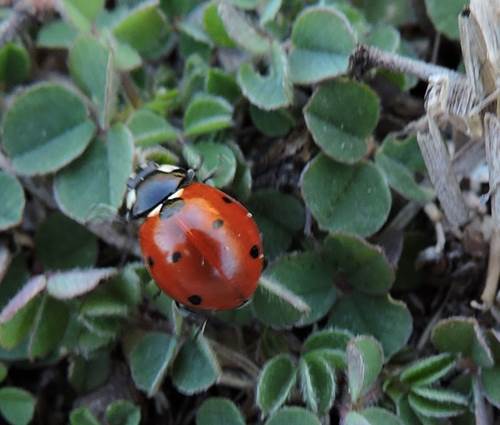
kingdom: Animalia
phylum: Arthropoda
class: Insecta
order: Coleoptera
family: Coccinellidae
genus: Coccinella
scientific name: Coccinella septempunctata
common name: Sevenspotted lady beetle
